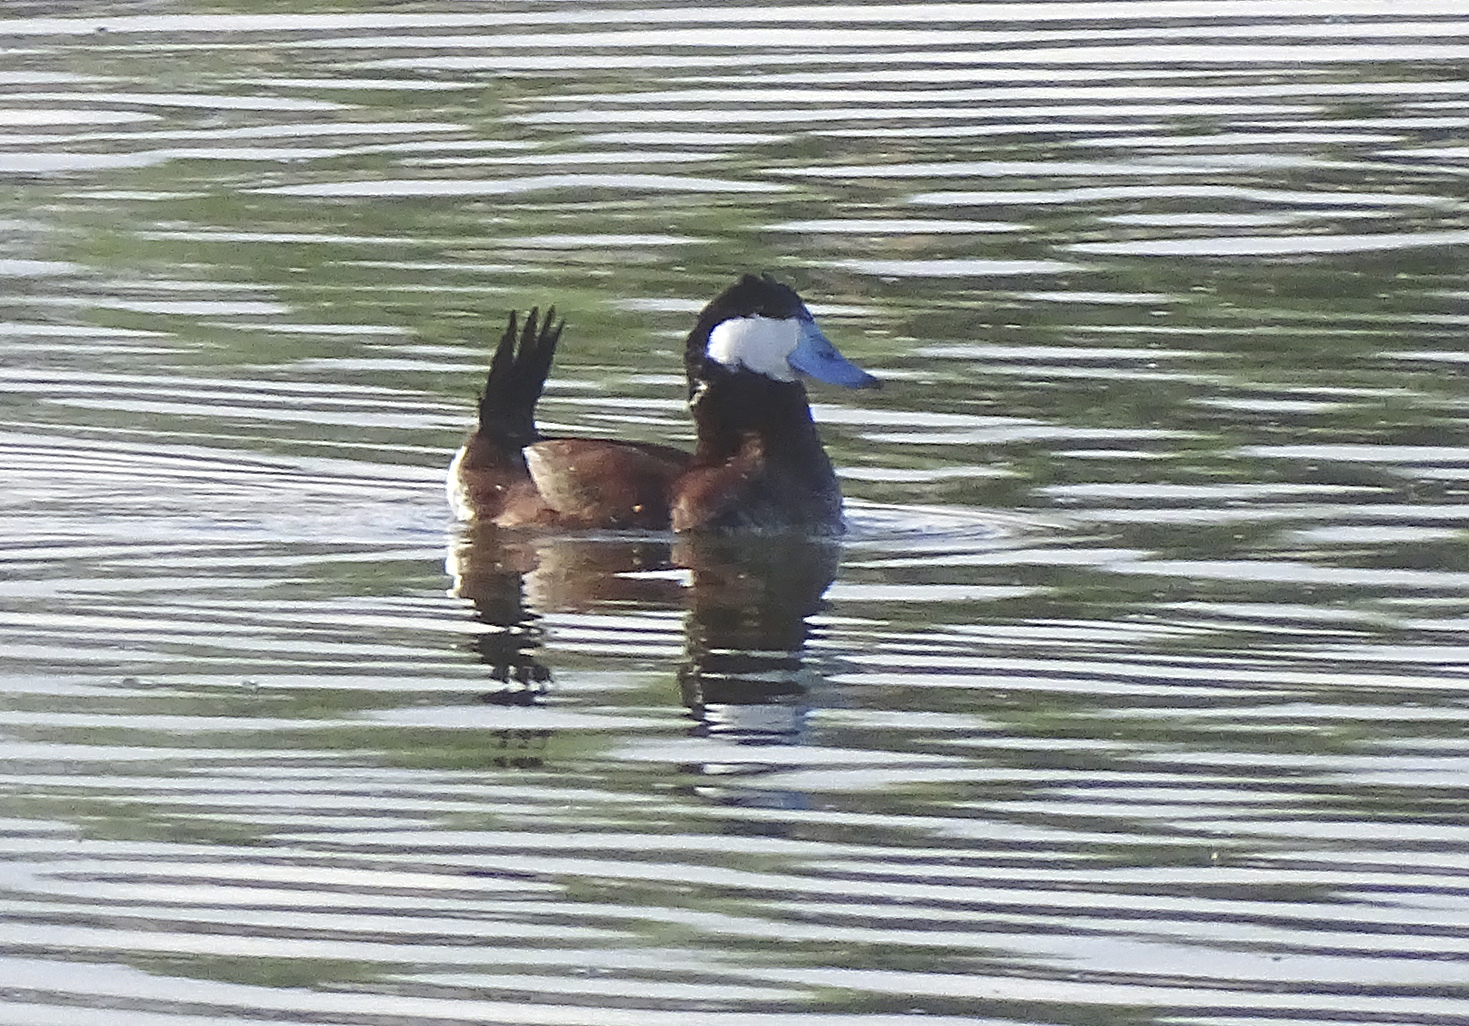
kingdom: Animalia
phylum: Chordata
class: Aves
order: Anseriformes
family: Anatidae
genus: Oxyura
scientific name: Oxyura jamaicensis
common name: Ruddy duck
